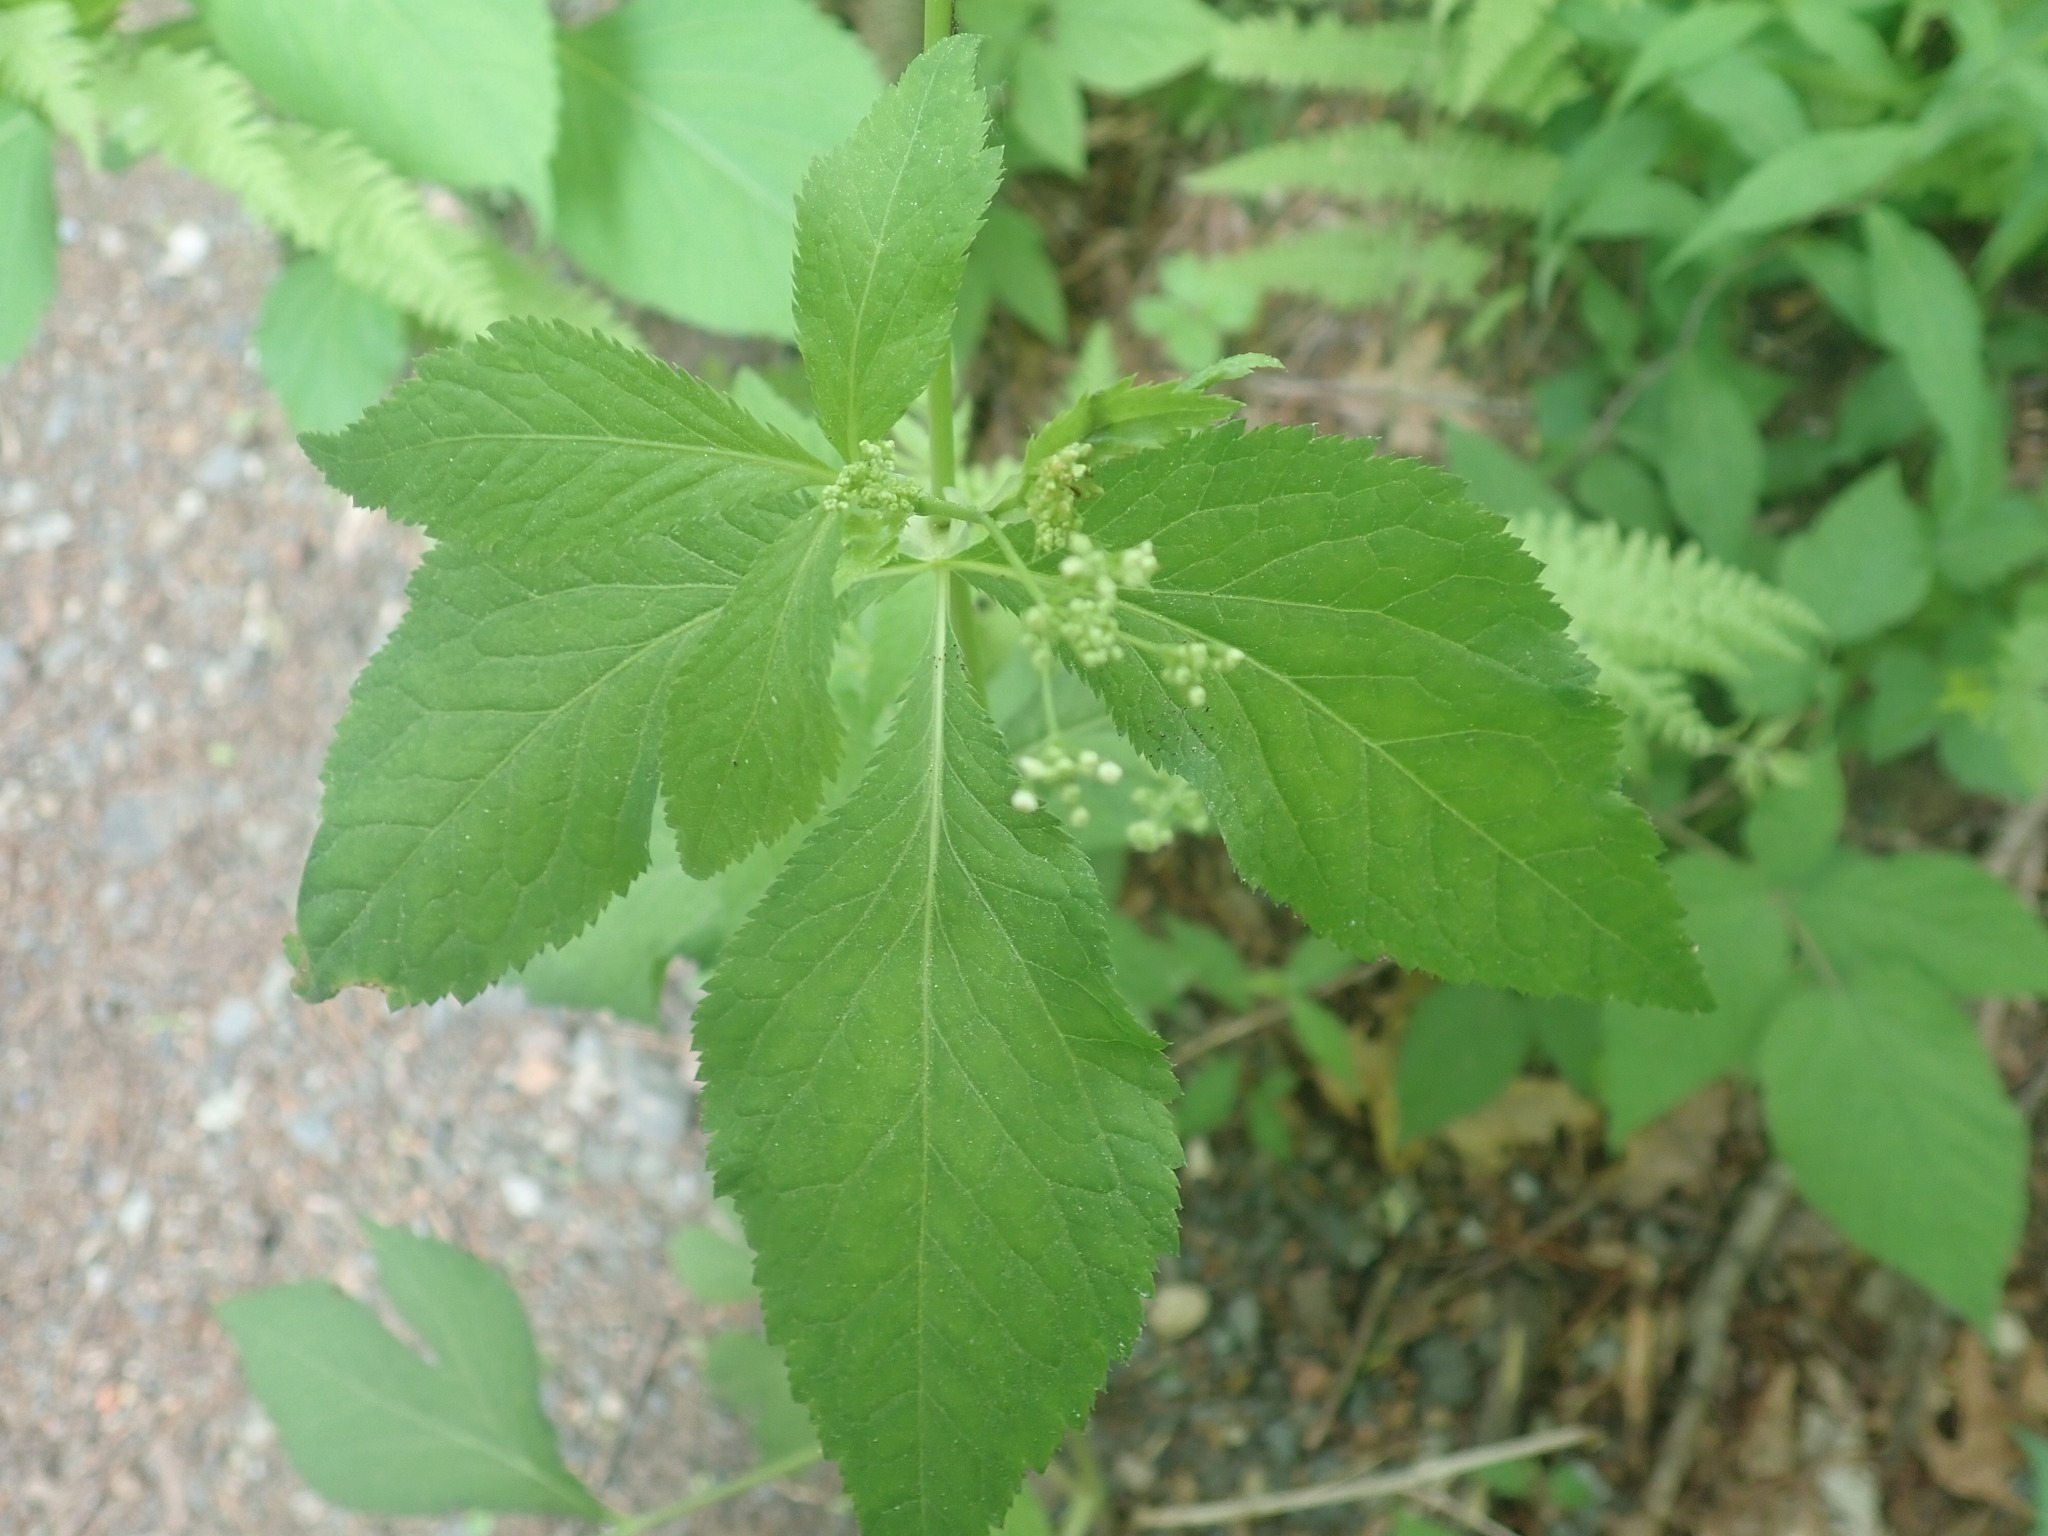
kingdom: Plantae
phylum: Tracheophyta
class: Magnoliopsida
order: Apiales
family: Apiaceae
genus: Cryptotaenia
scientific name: Cryptotaenia canadensis
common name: Honewort
